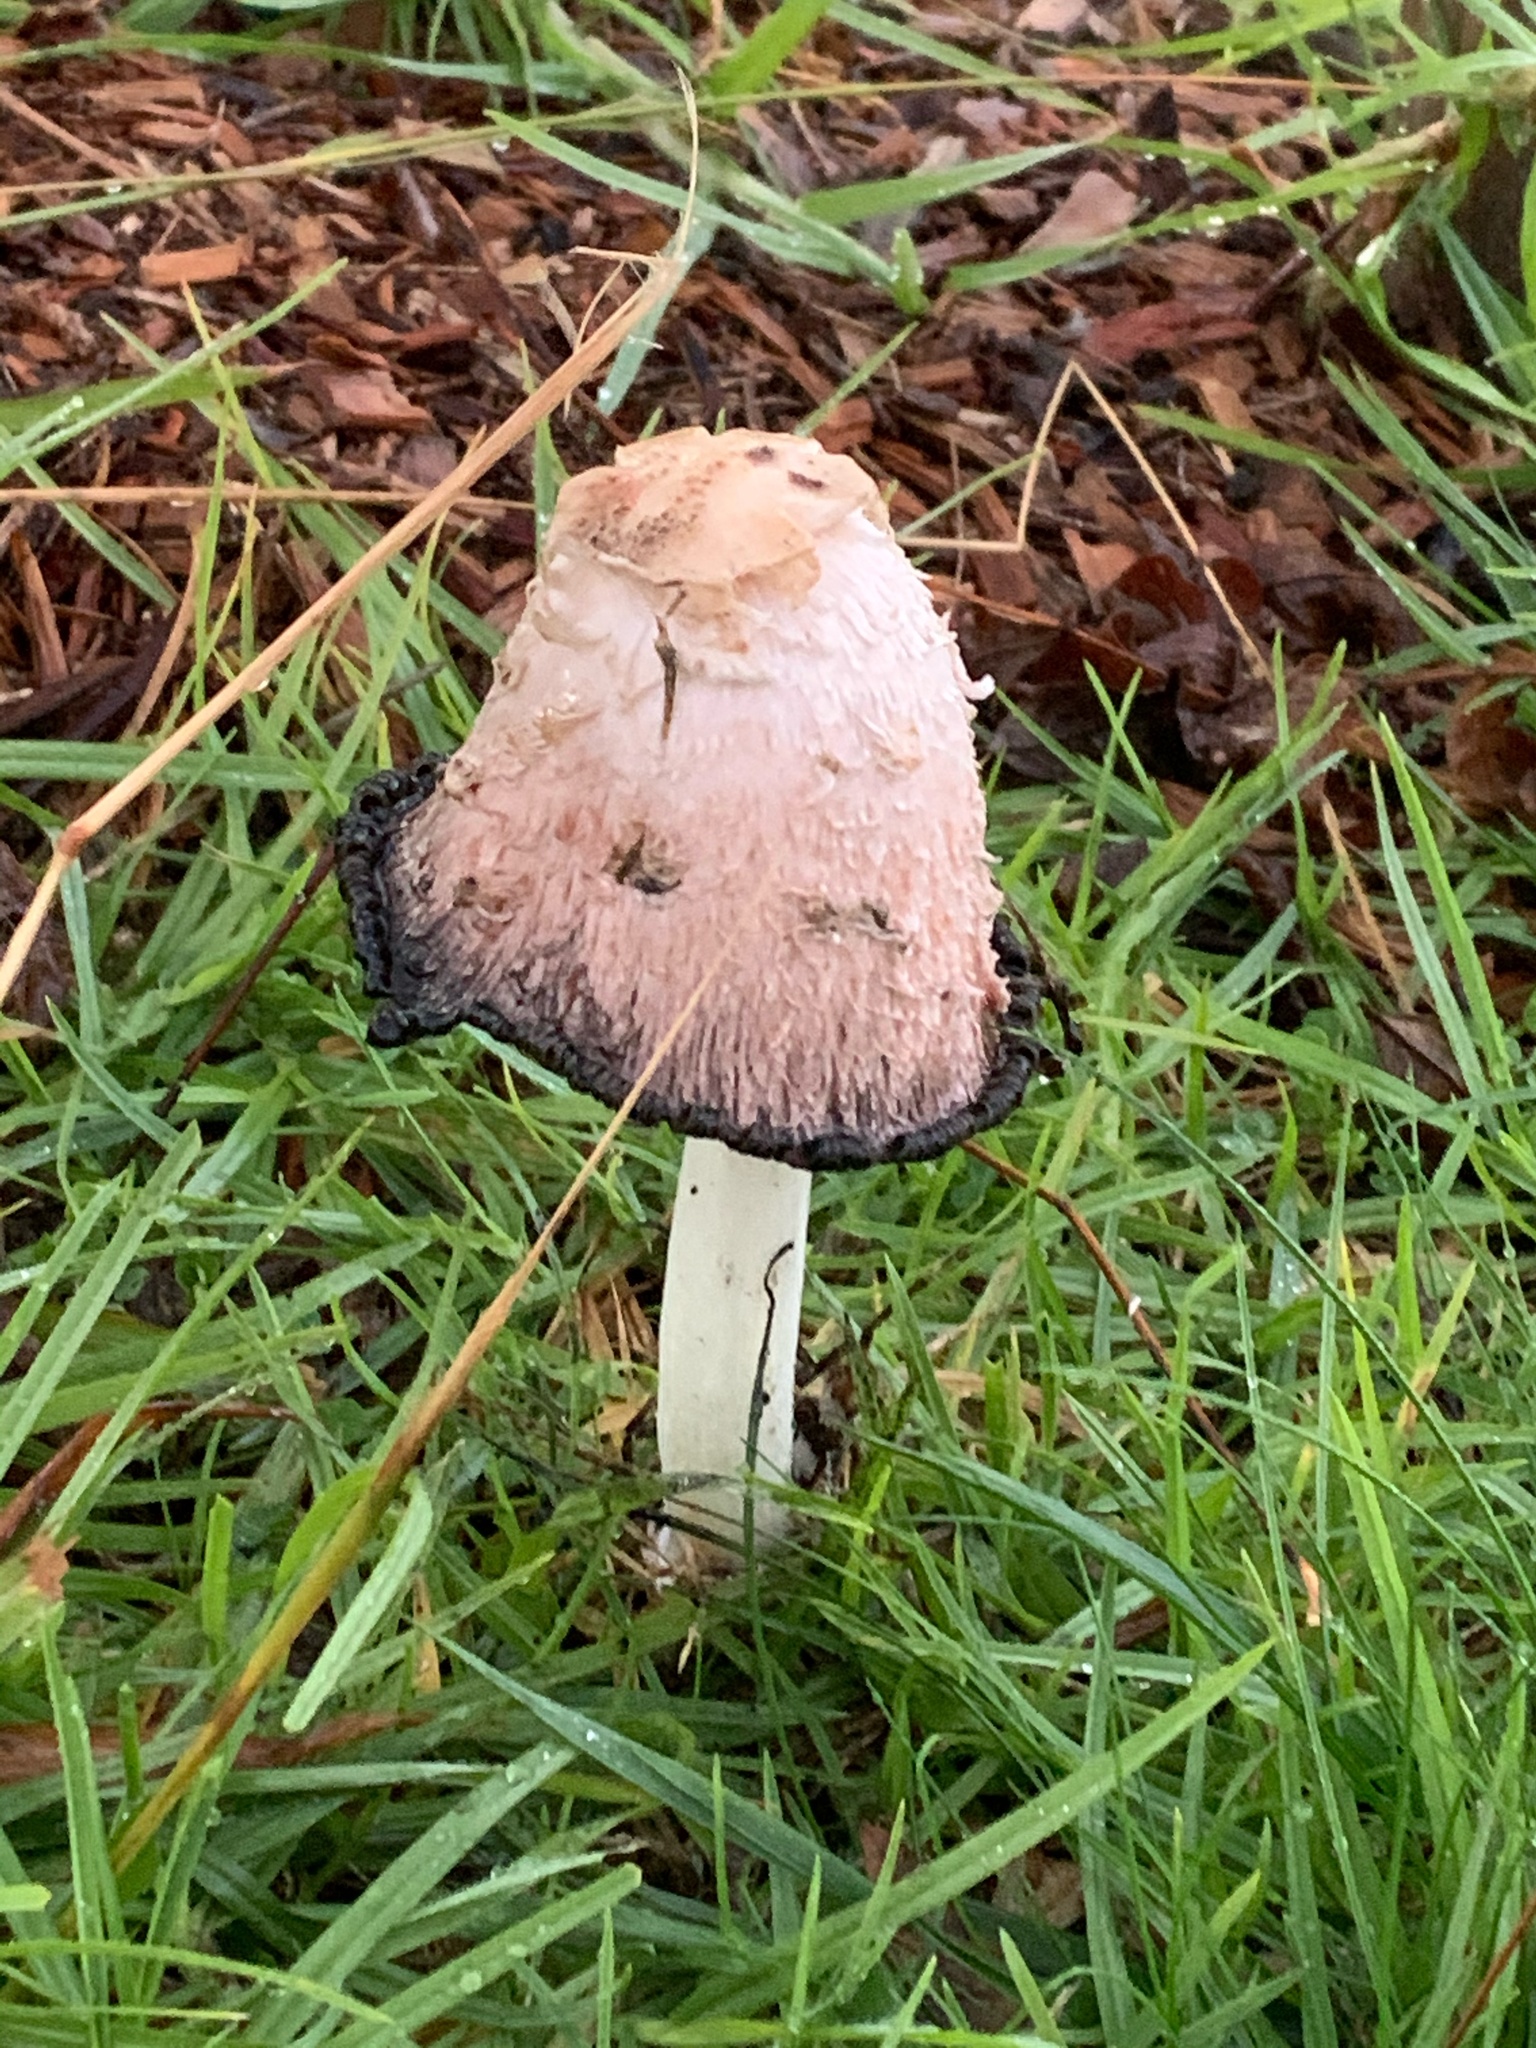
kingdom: Fungi
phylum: Basidiomycota
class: Agaricomycetes
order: Agaricales
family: Agaricaceae
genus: Coprinus
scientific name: Coprinus comatus
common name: Lawyer's wig
